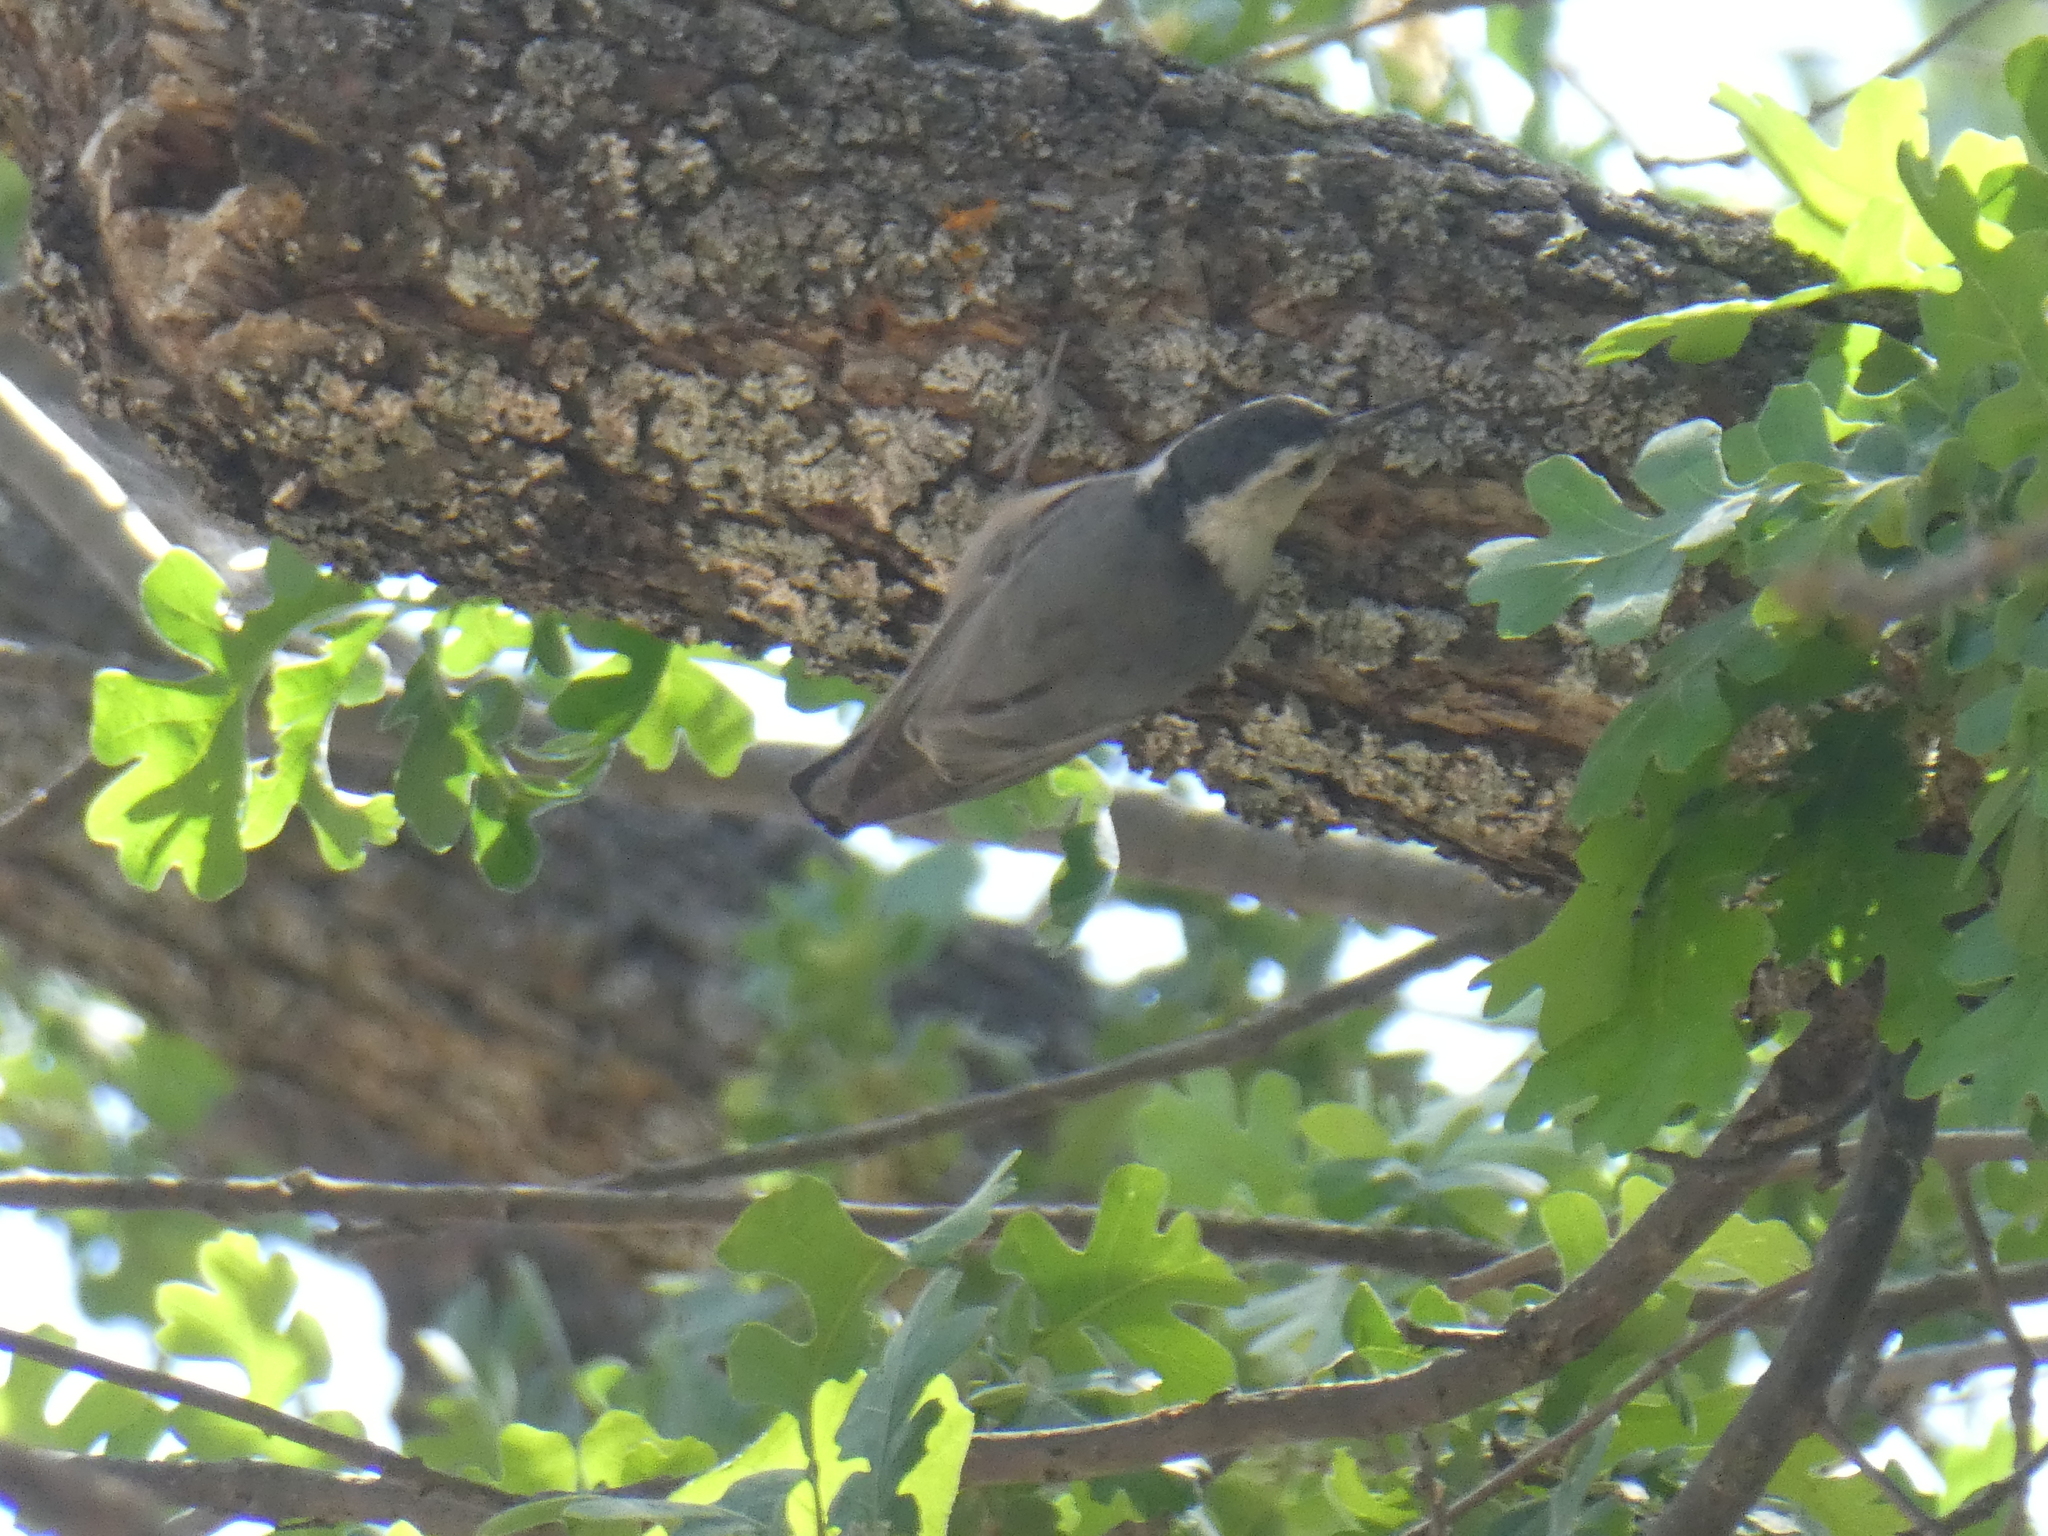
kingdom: Animalia
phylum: Chordata
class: Aves
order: Passeriformes
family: Sittidae
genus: Sitta
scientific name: Sitta carolinensis
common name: White-breasted nuthatch
